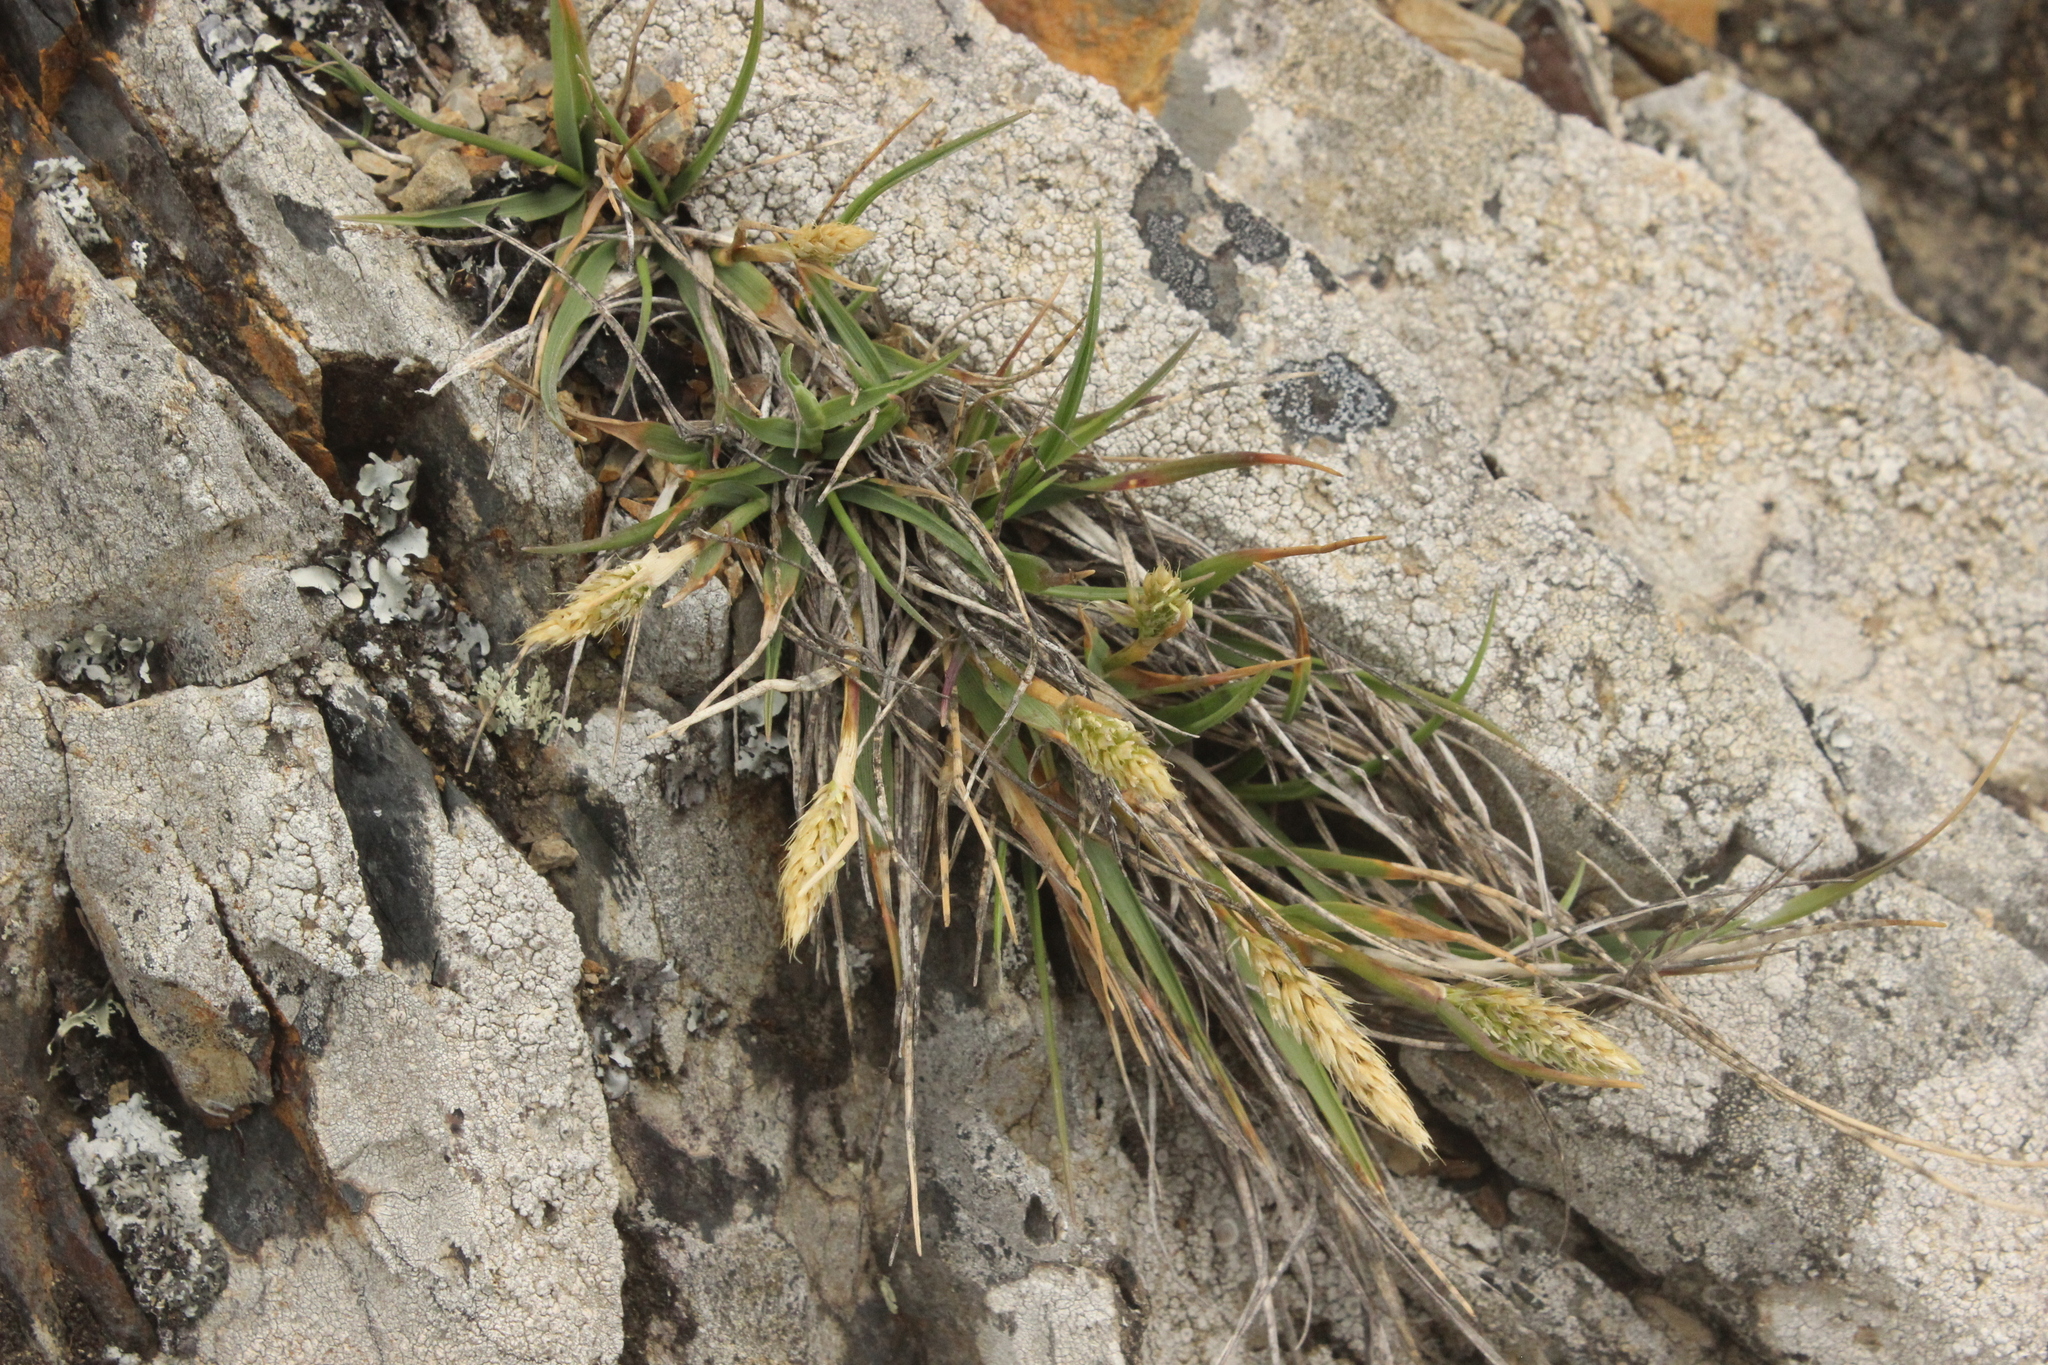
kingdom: Plantae
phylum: Tracheophyta
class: Liliopsida
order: Poales
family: Poaceae
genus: Koeleria
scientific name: Koeleria antarctica
